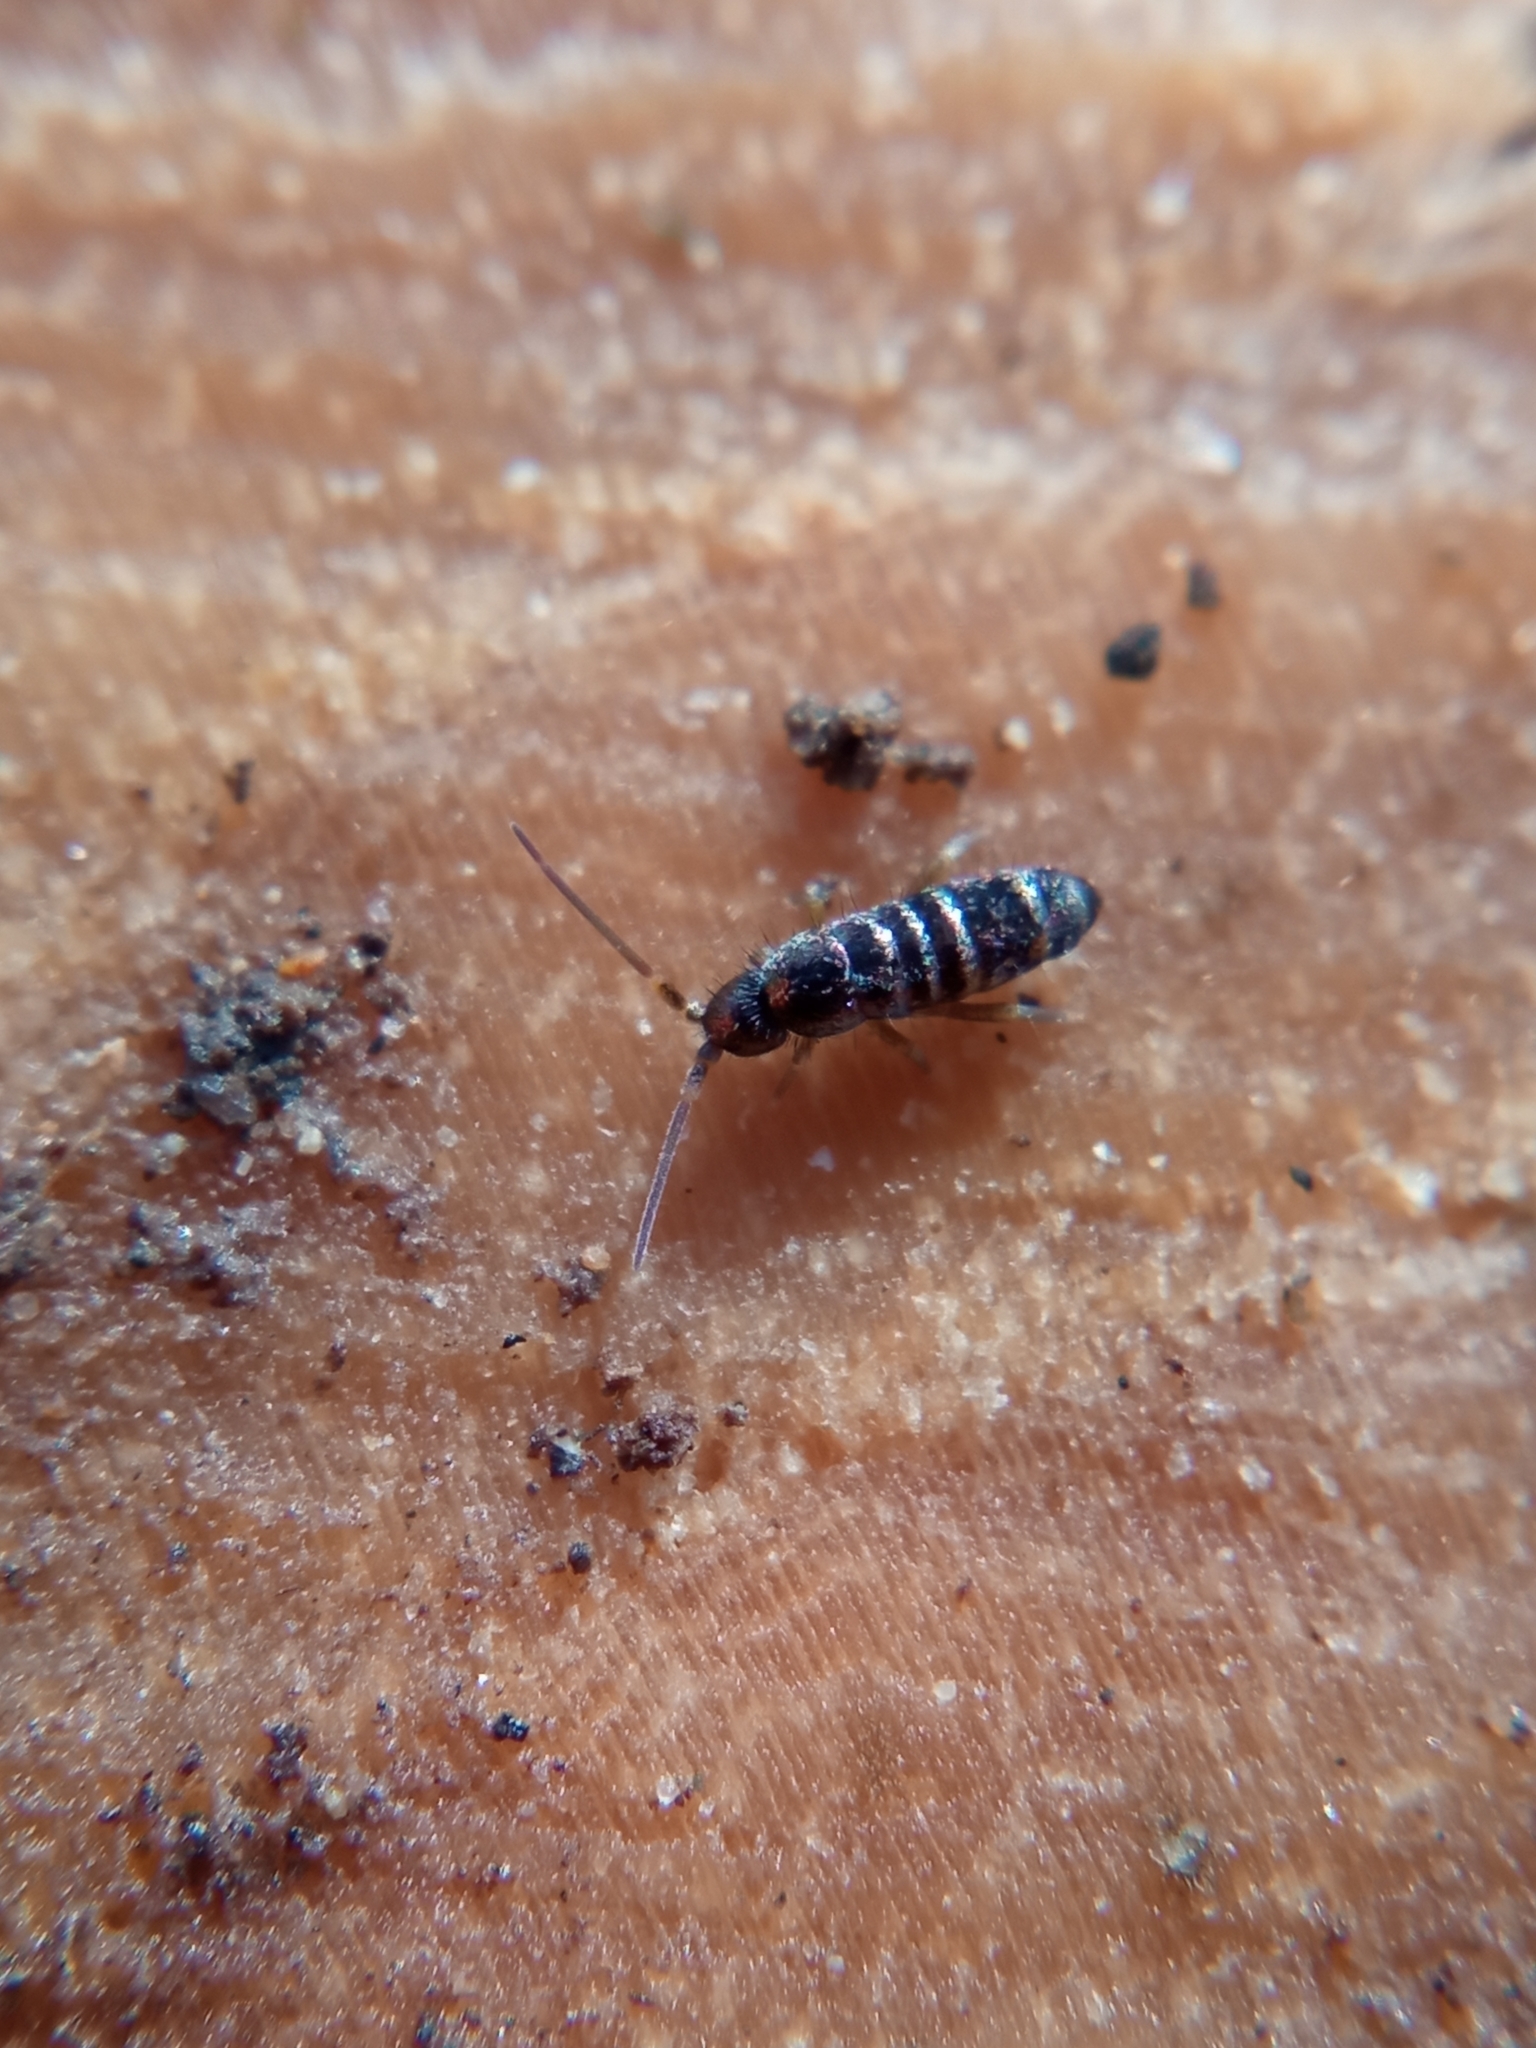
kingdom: Animalia
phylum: Arthropoda
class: Collembola
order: Entomobryomorpha
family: Tomoceridae
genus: Tomocerus
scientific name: Tomocerus vulgaris
